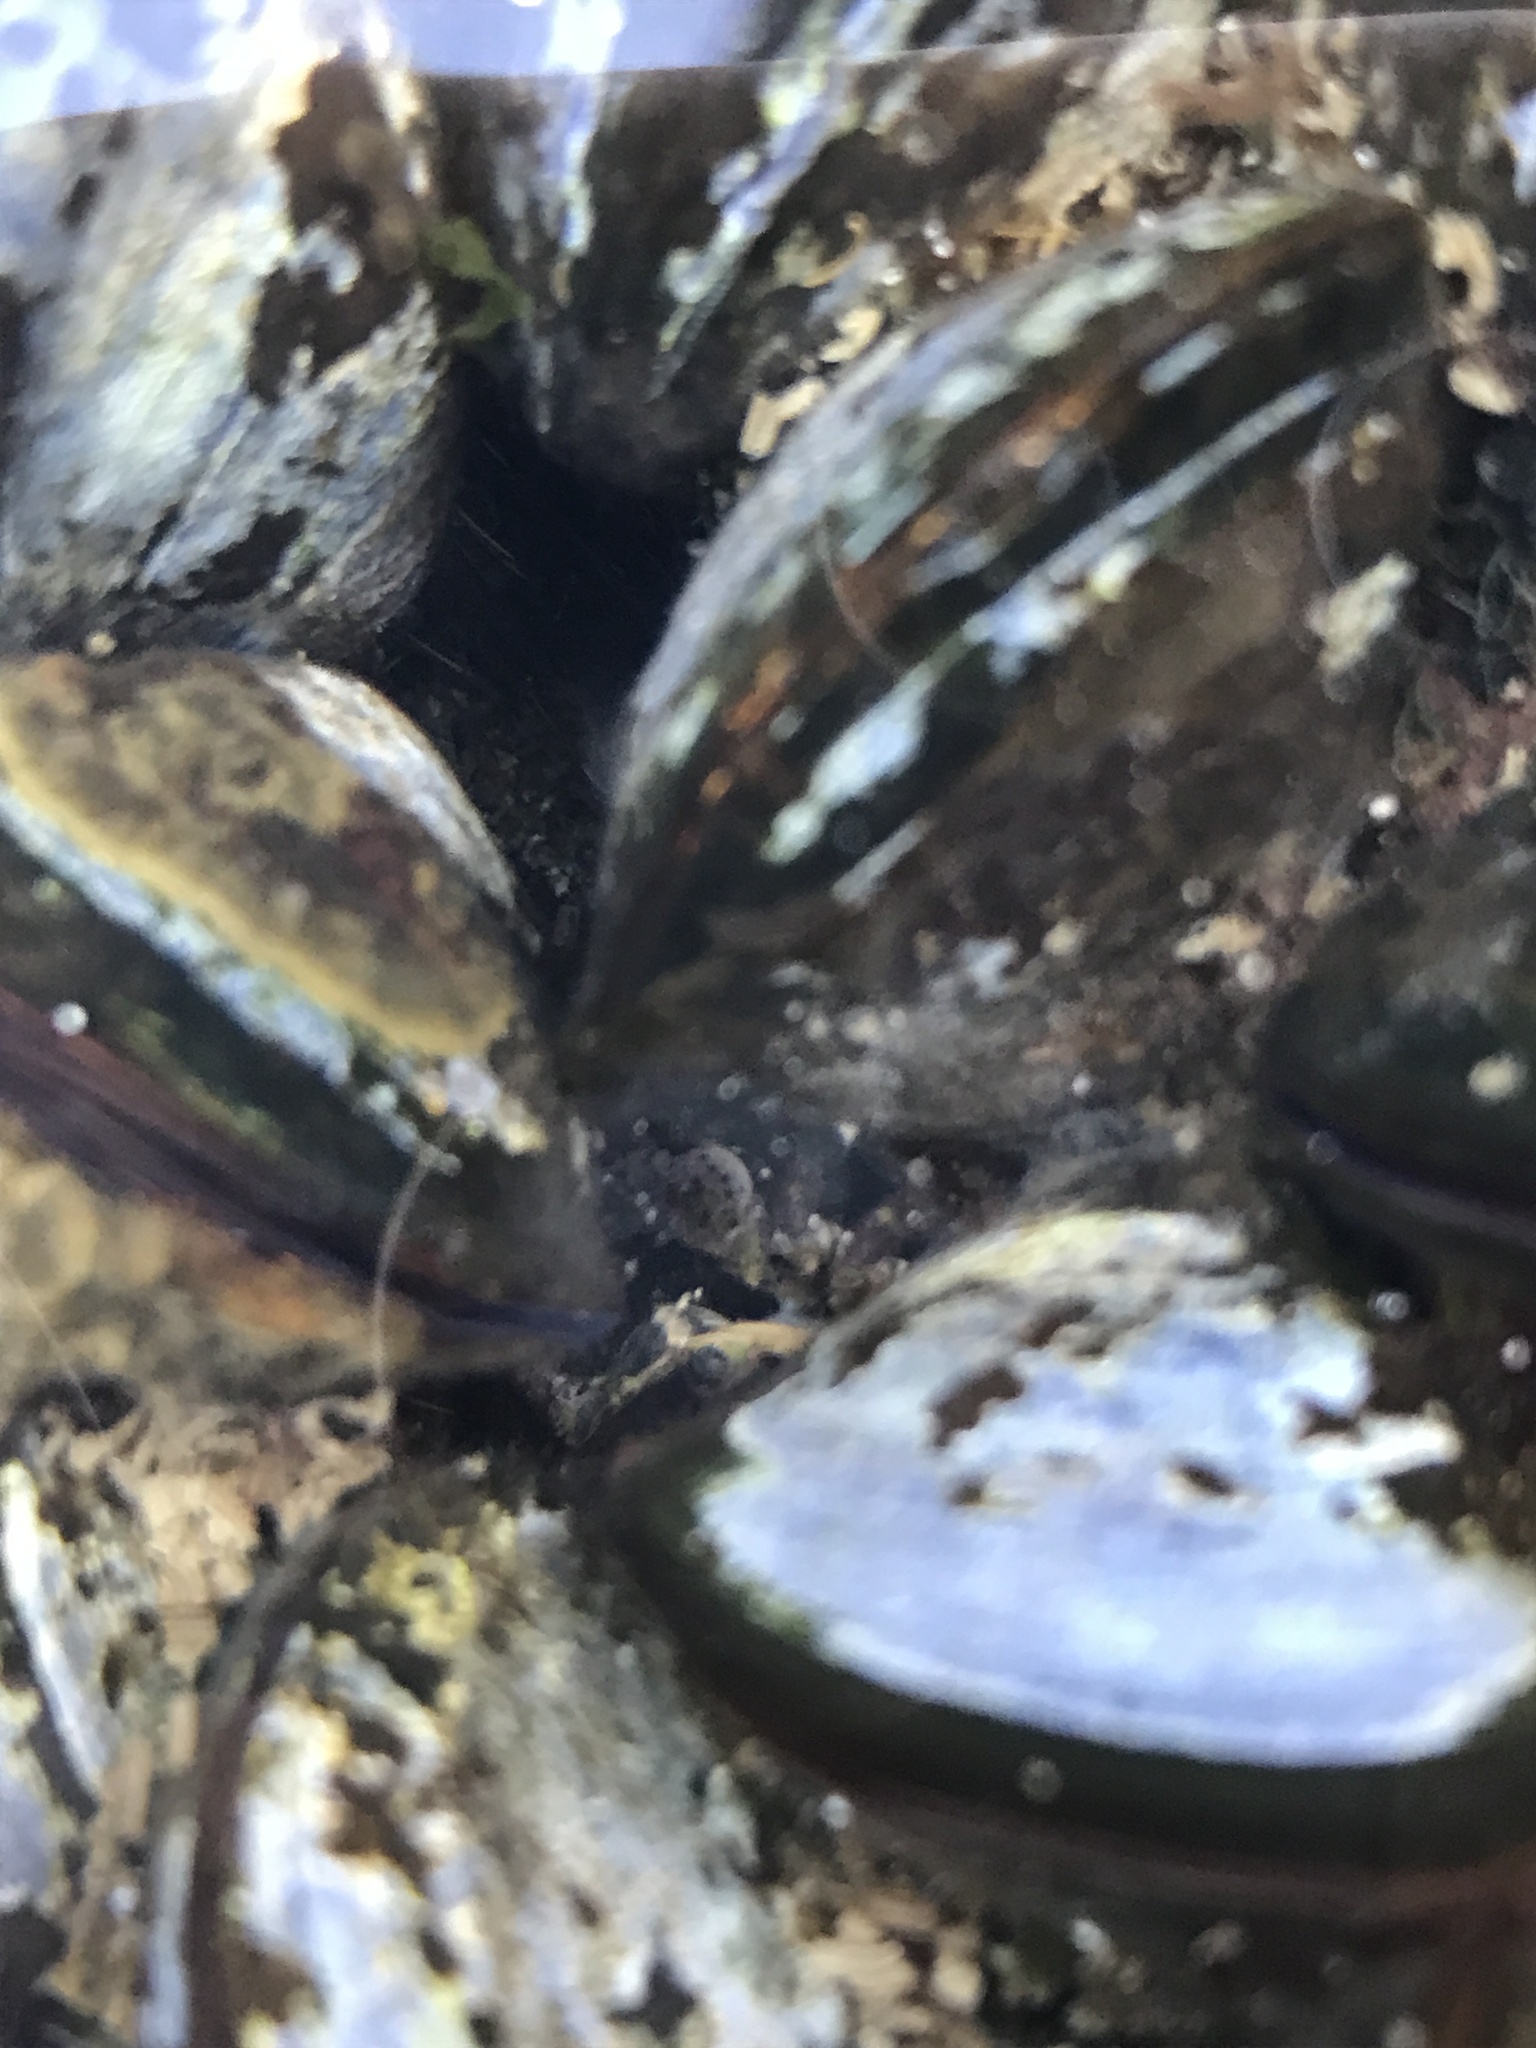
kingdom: Animalia
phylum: Arthropoda
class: Malacostraca
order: Decapoda
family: Varunidae
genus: Hemigrapsus
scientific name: Hemigrapsus sanguineus
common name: Asian shore crab
